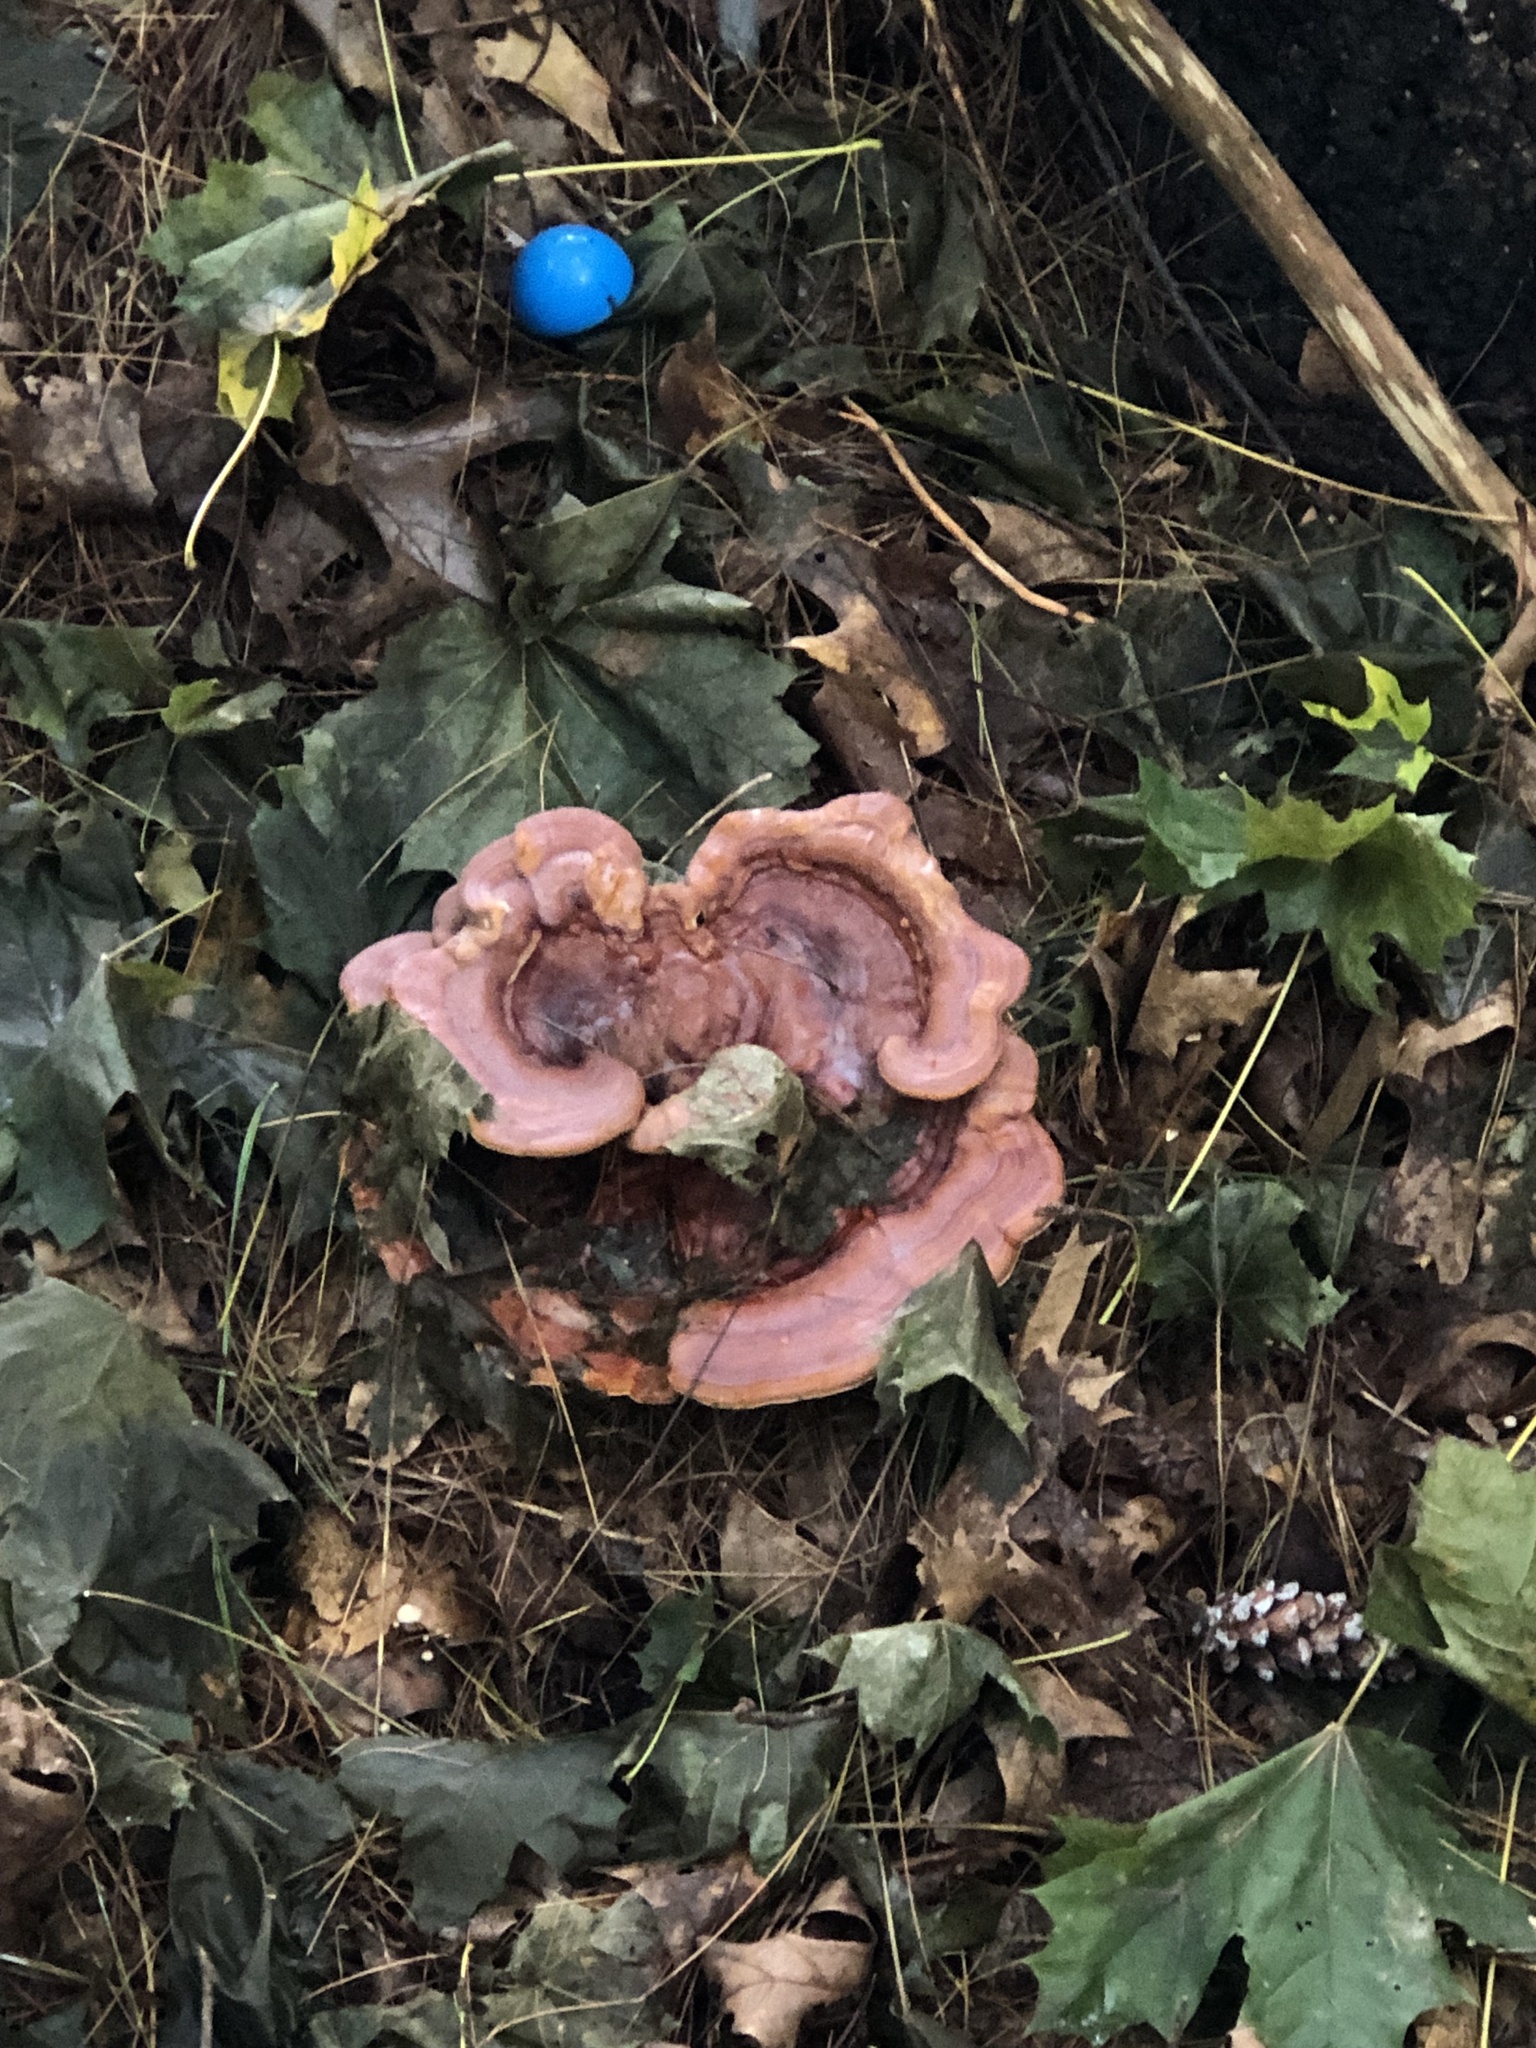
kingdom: Fungi
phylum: Basidiomycota
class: Agaricomycetes
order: Polyporales
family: Polyporaceae
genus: Ganoderma
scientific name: Ganoderma curtisii
